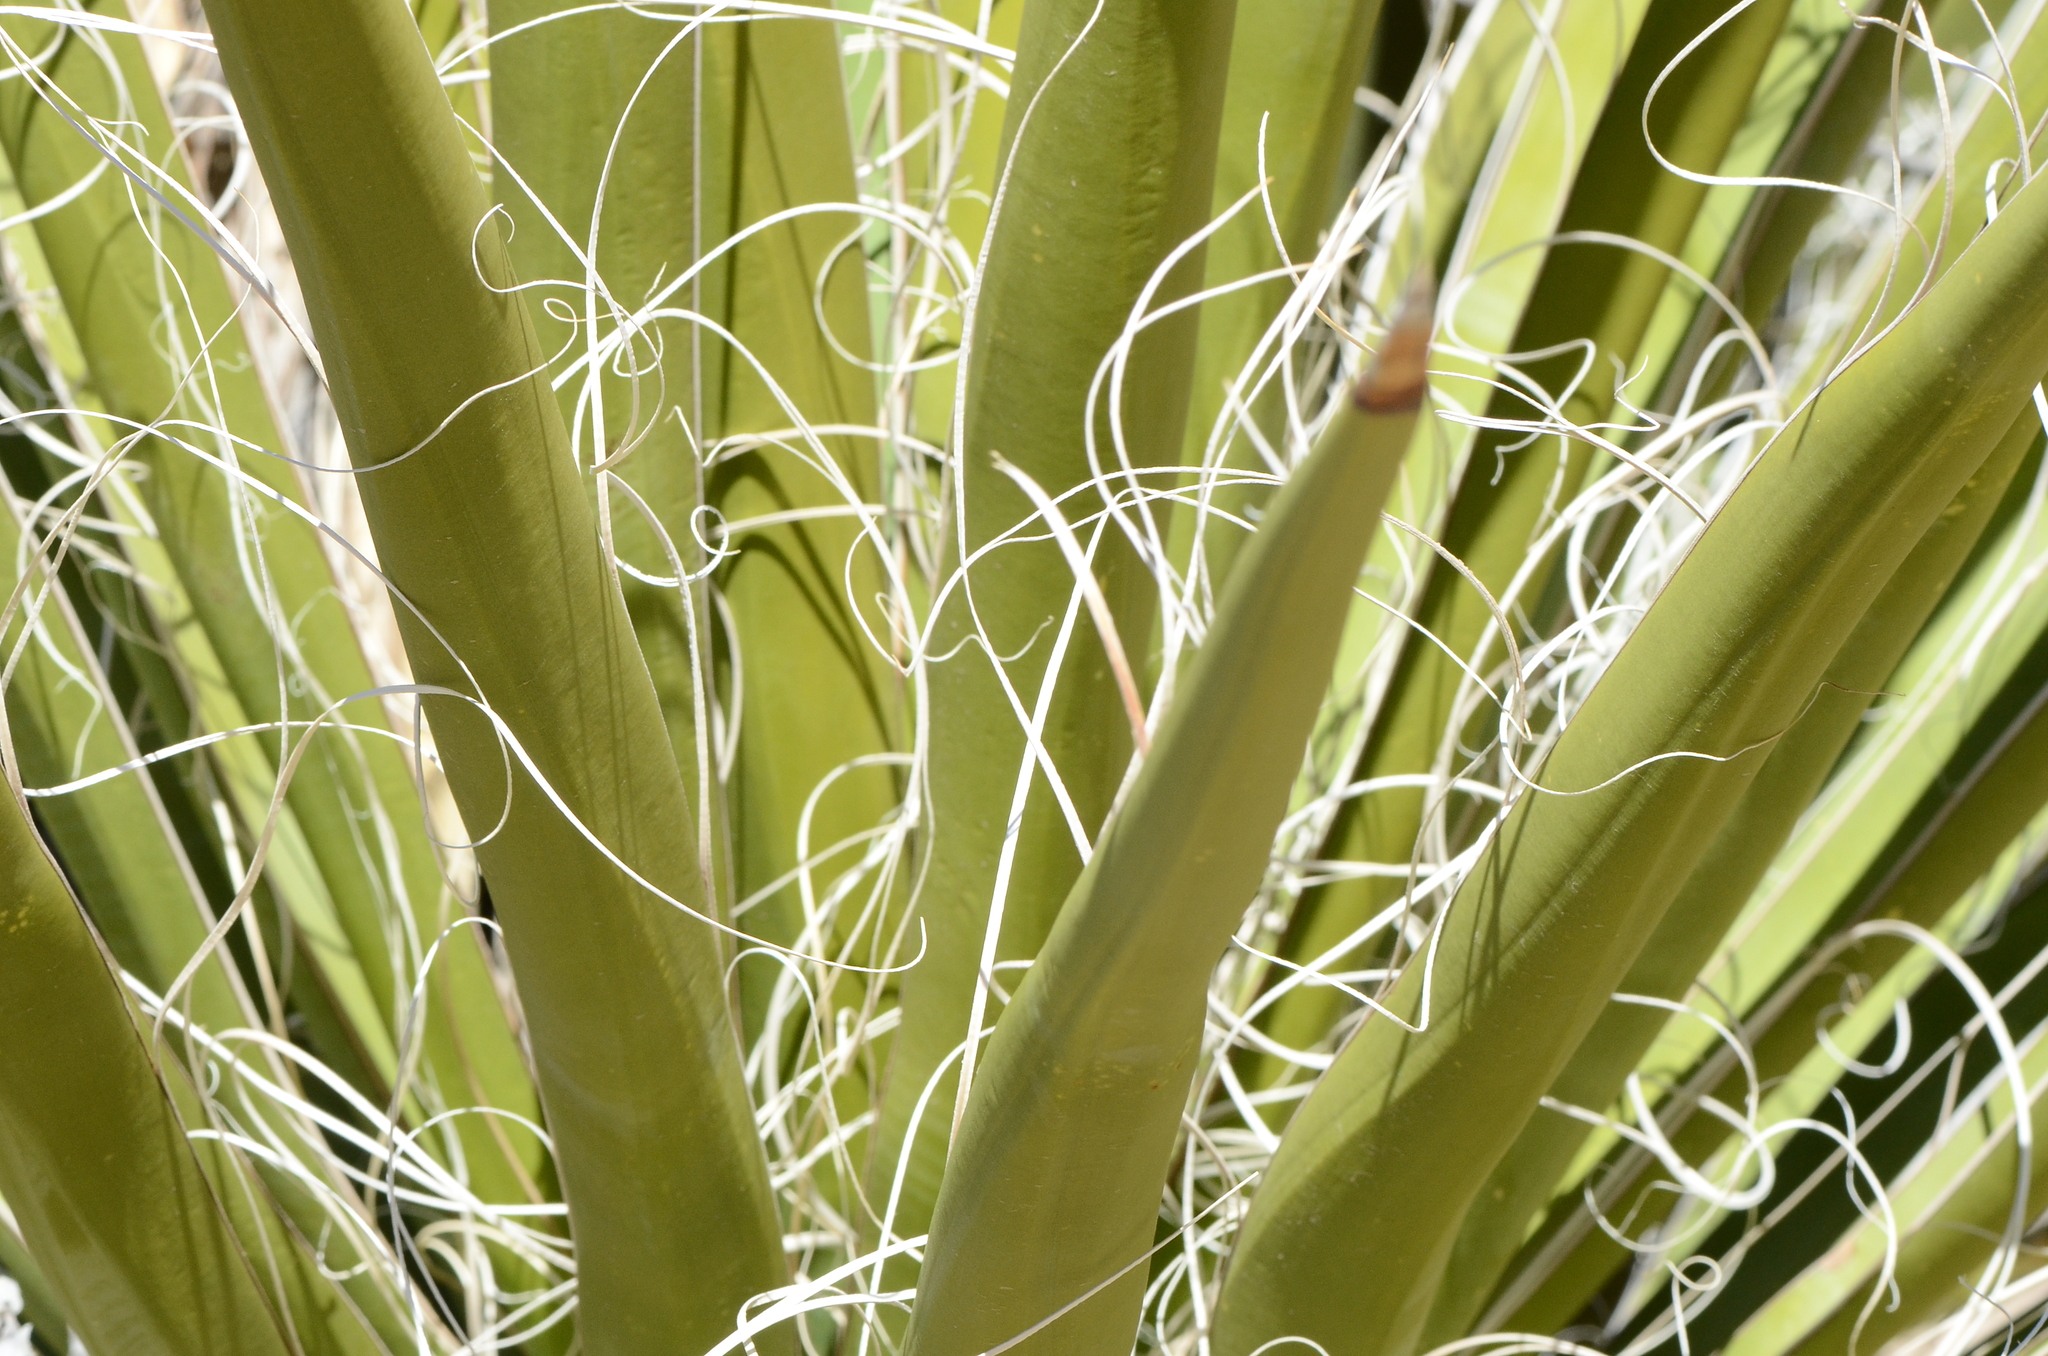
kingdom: Plantae
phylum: Tracheophyta
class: Liliopsida
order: Asparagales
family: Asparagaceae
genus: Yucca
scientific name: Yucca schidigera
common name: Mojave yucca
